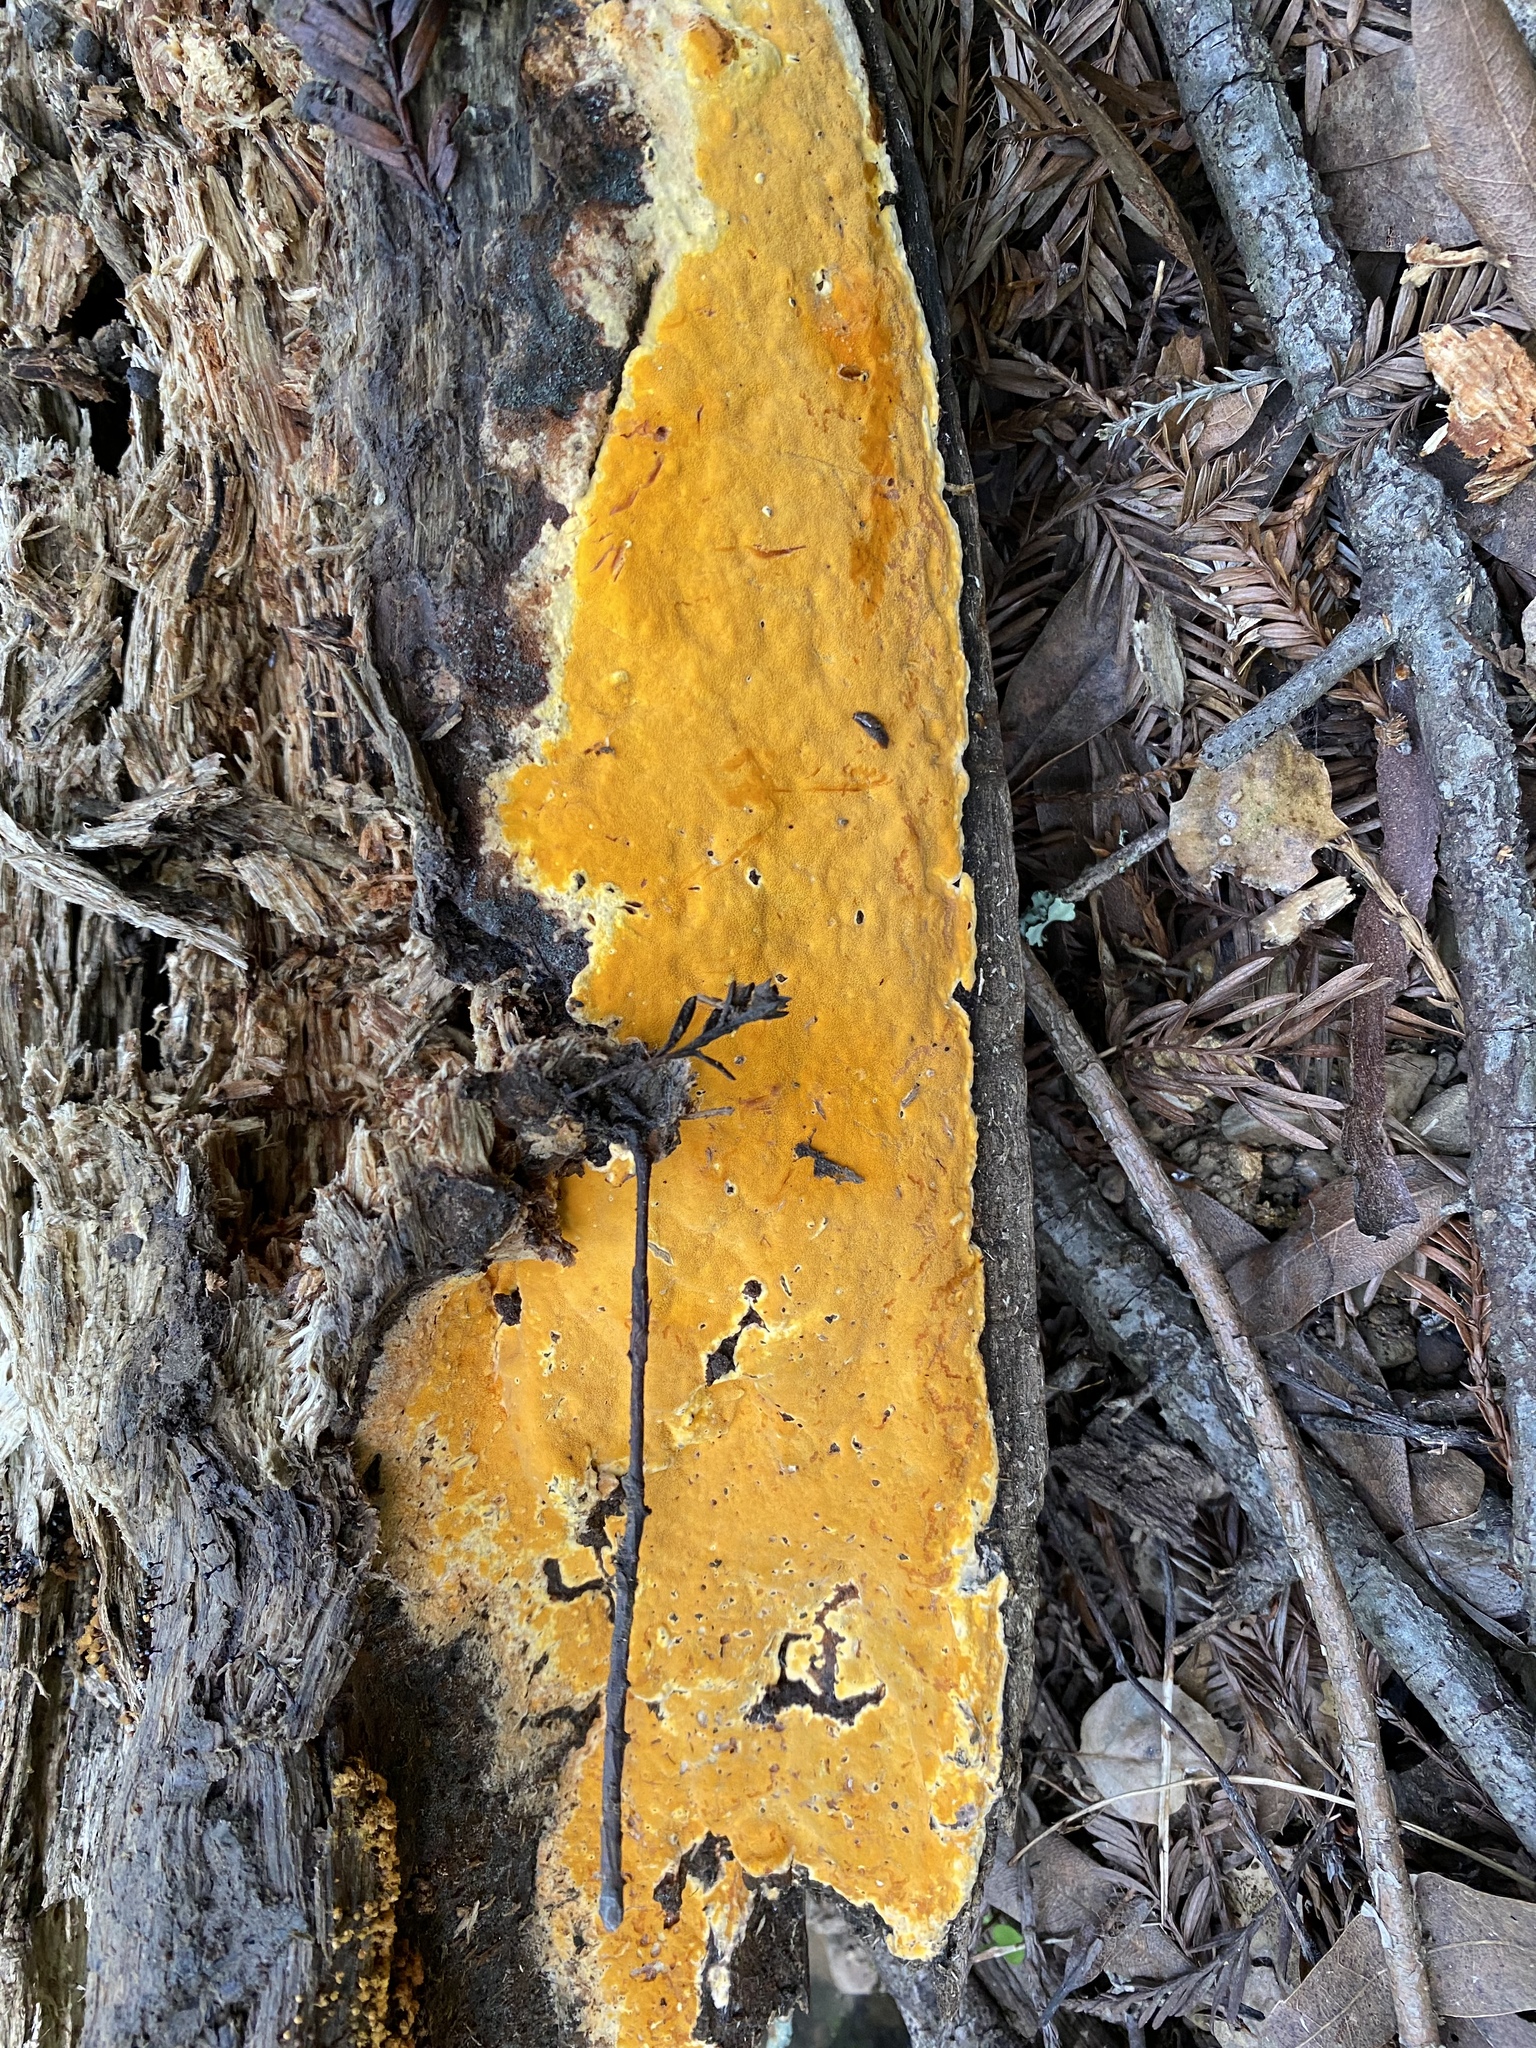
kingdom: Fungi
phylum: Basidiomycota
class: Agaricomycetes
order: Polyporales
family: Irpicaceae
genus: Ceriporia
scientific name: Ceriporia spissa
